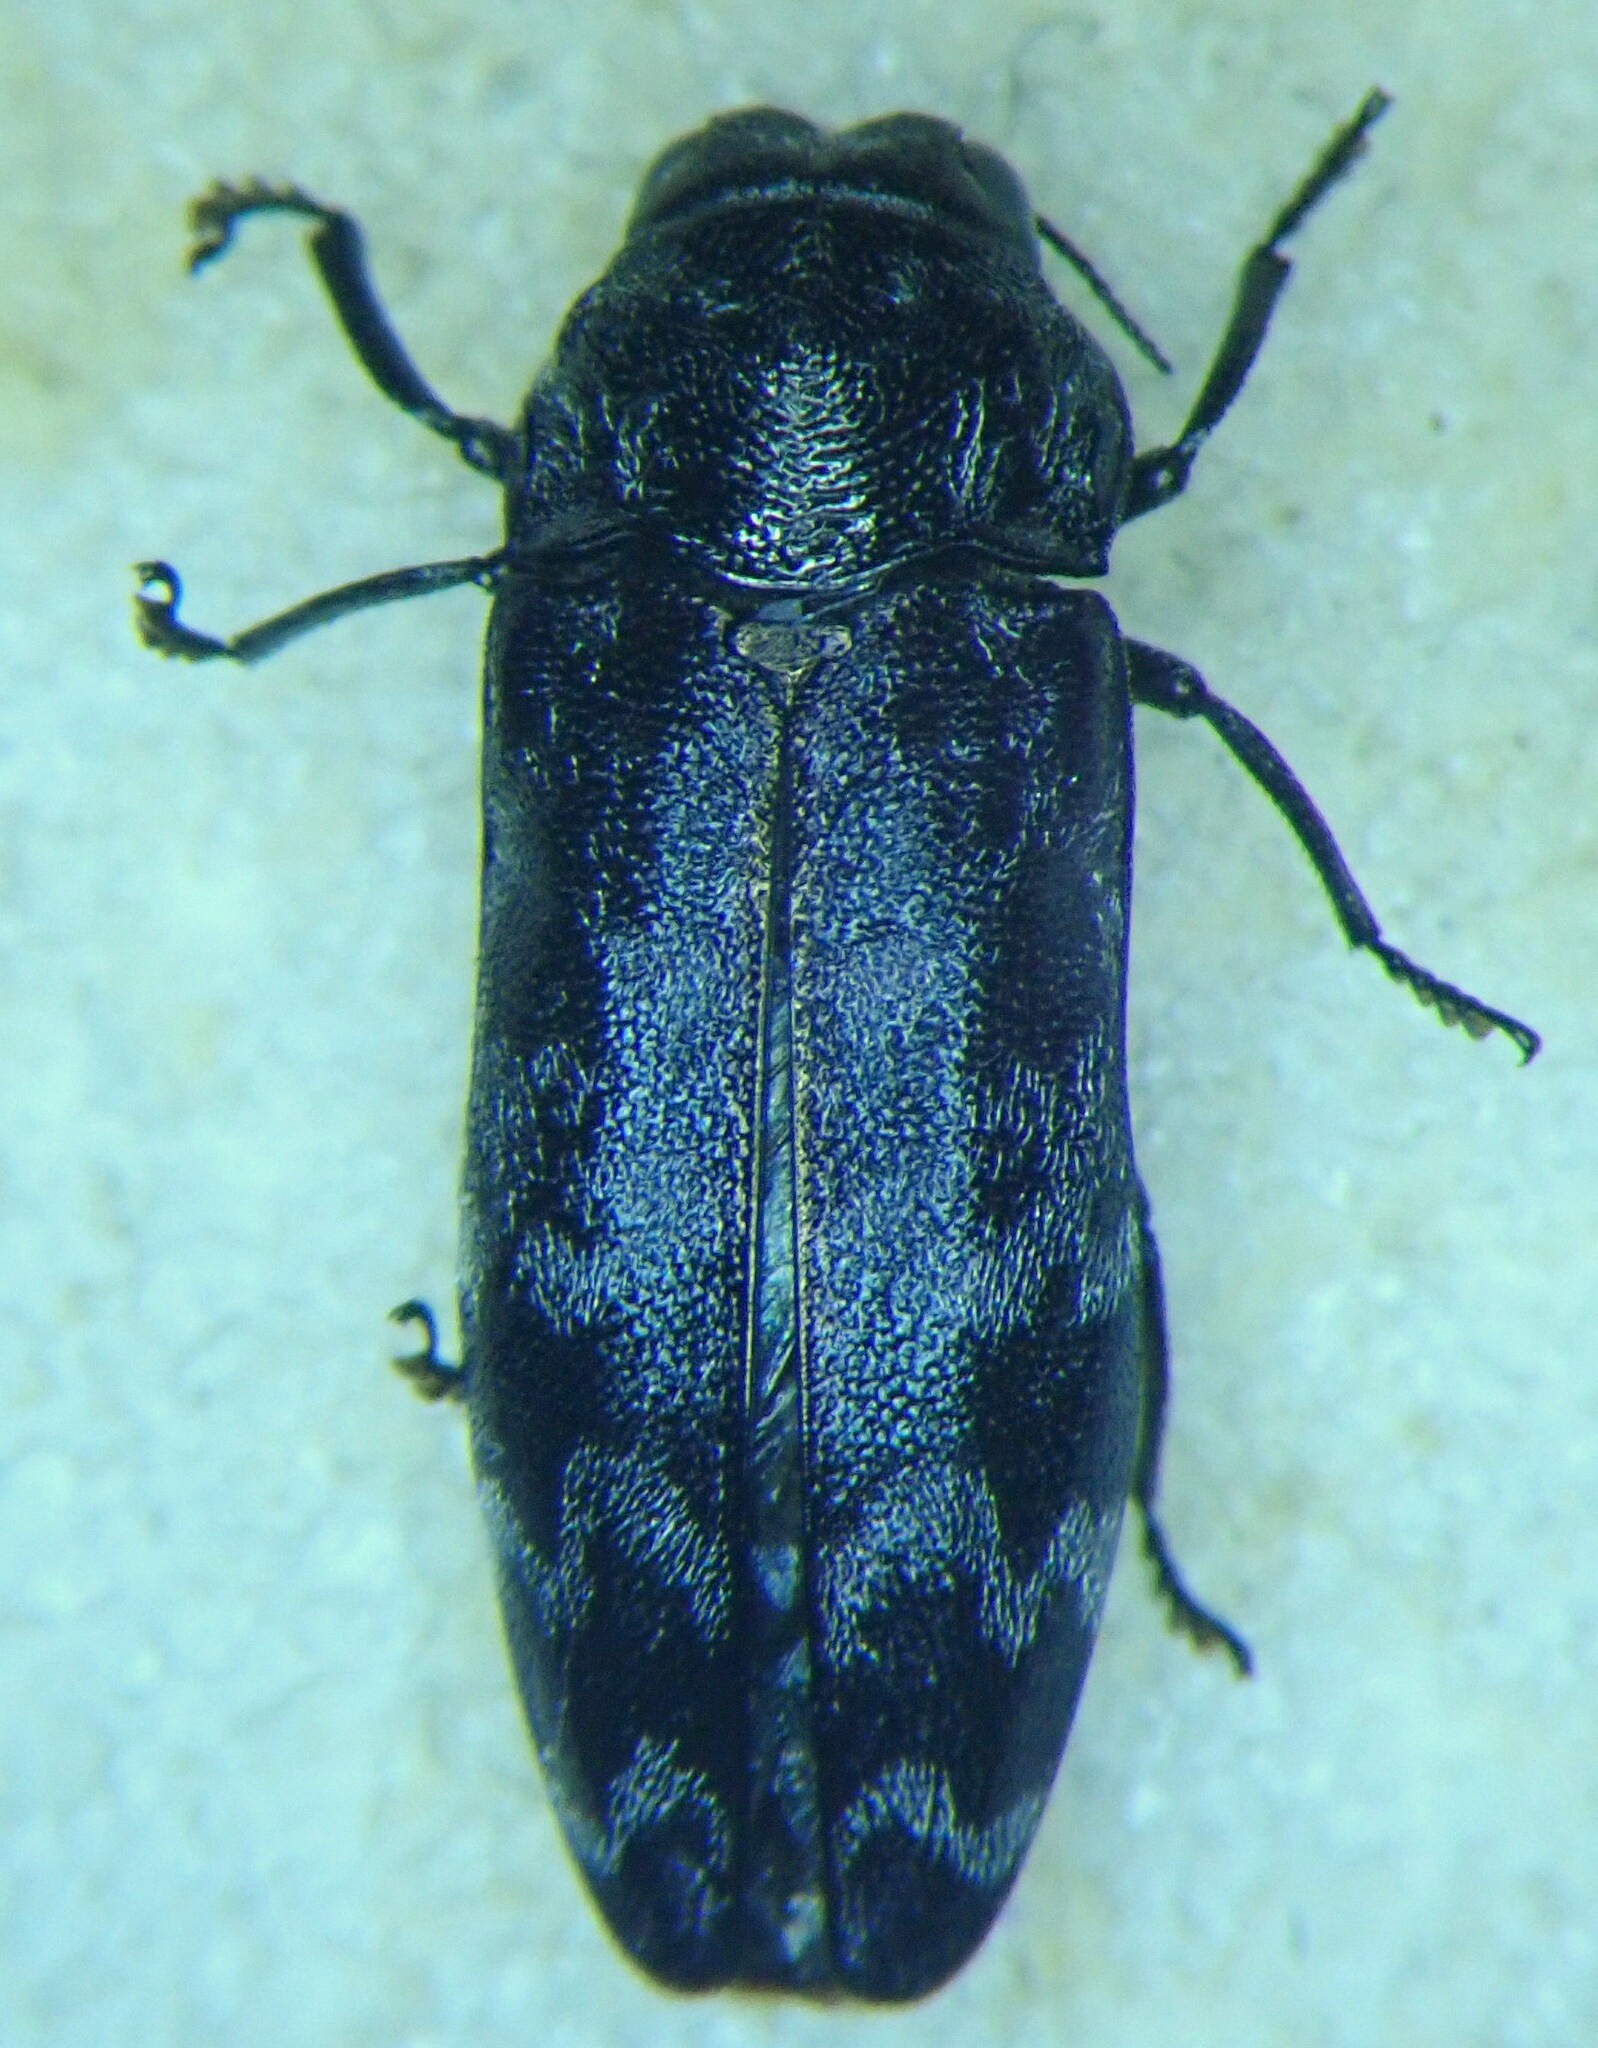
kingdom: Animalia
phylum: Arthropoda
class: Insecta
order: Coleoptera
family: Buprestidae
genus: Coraebus
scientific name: Coraebus rubi
